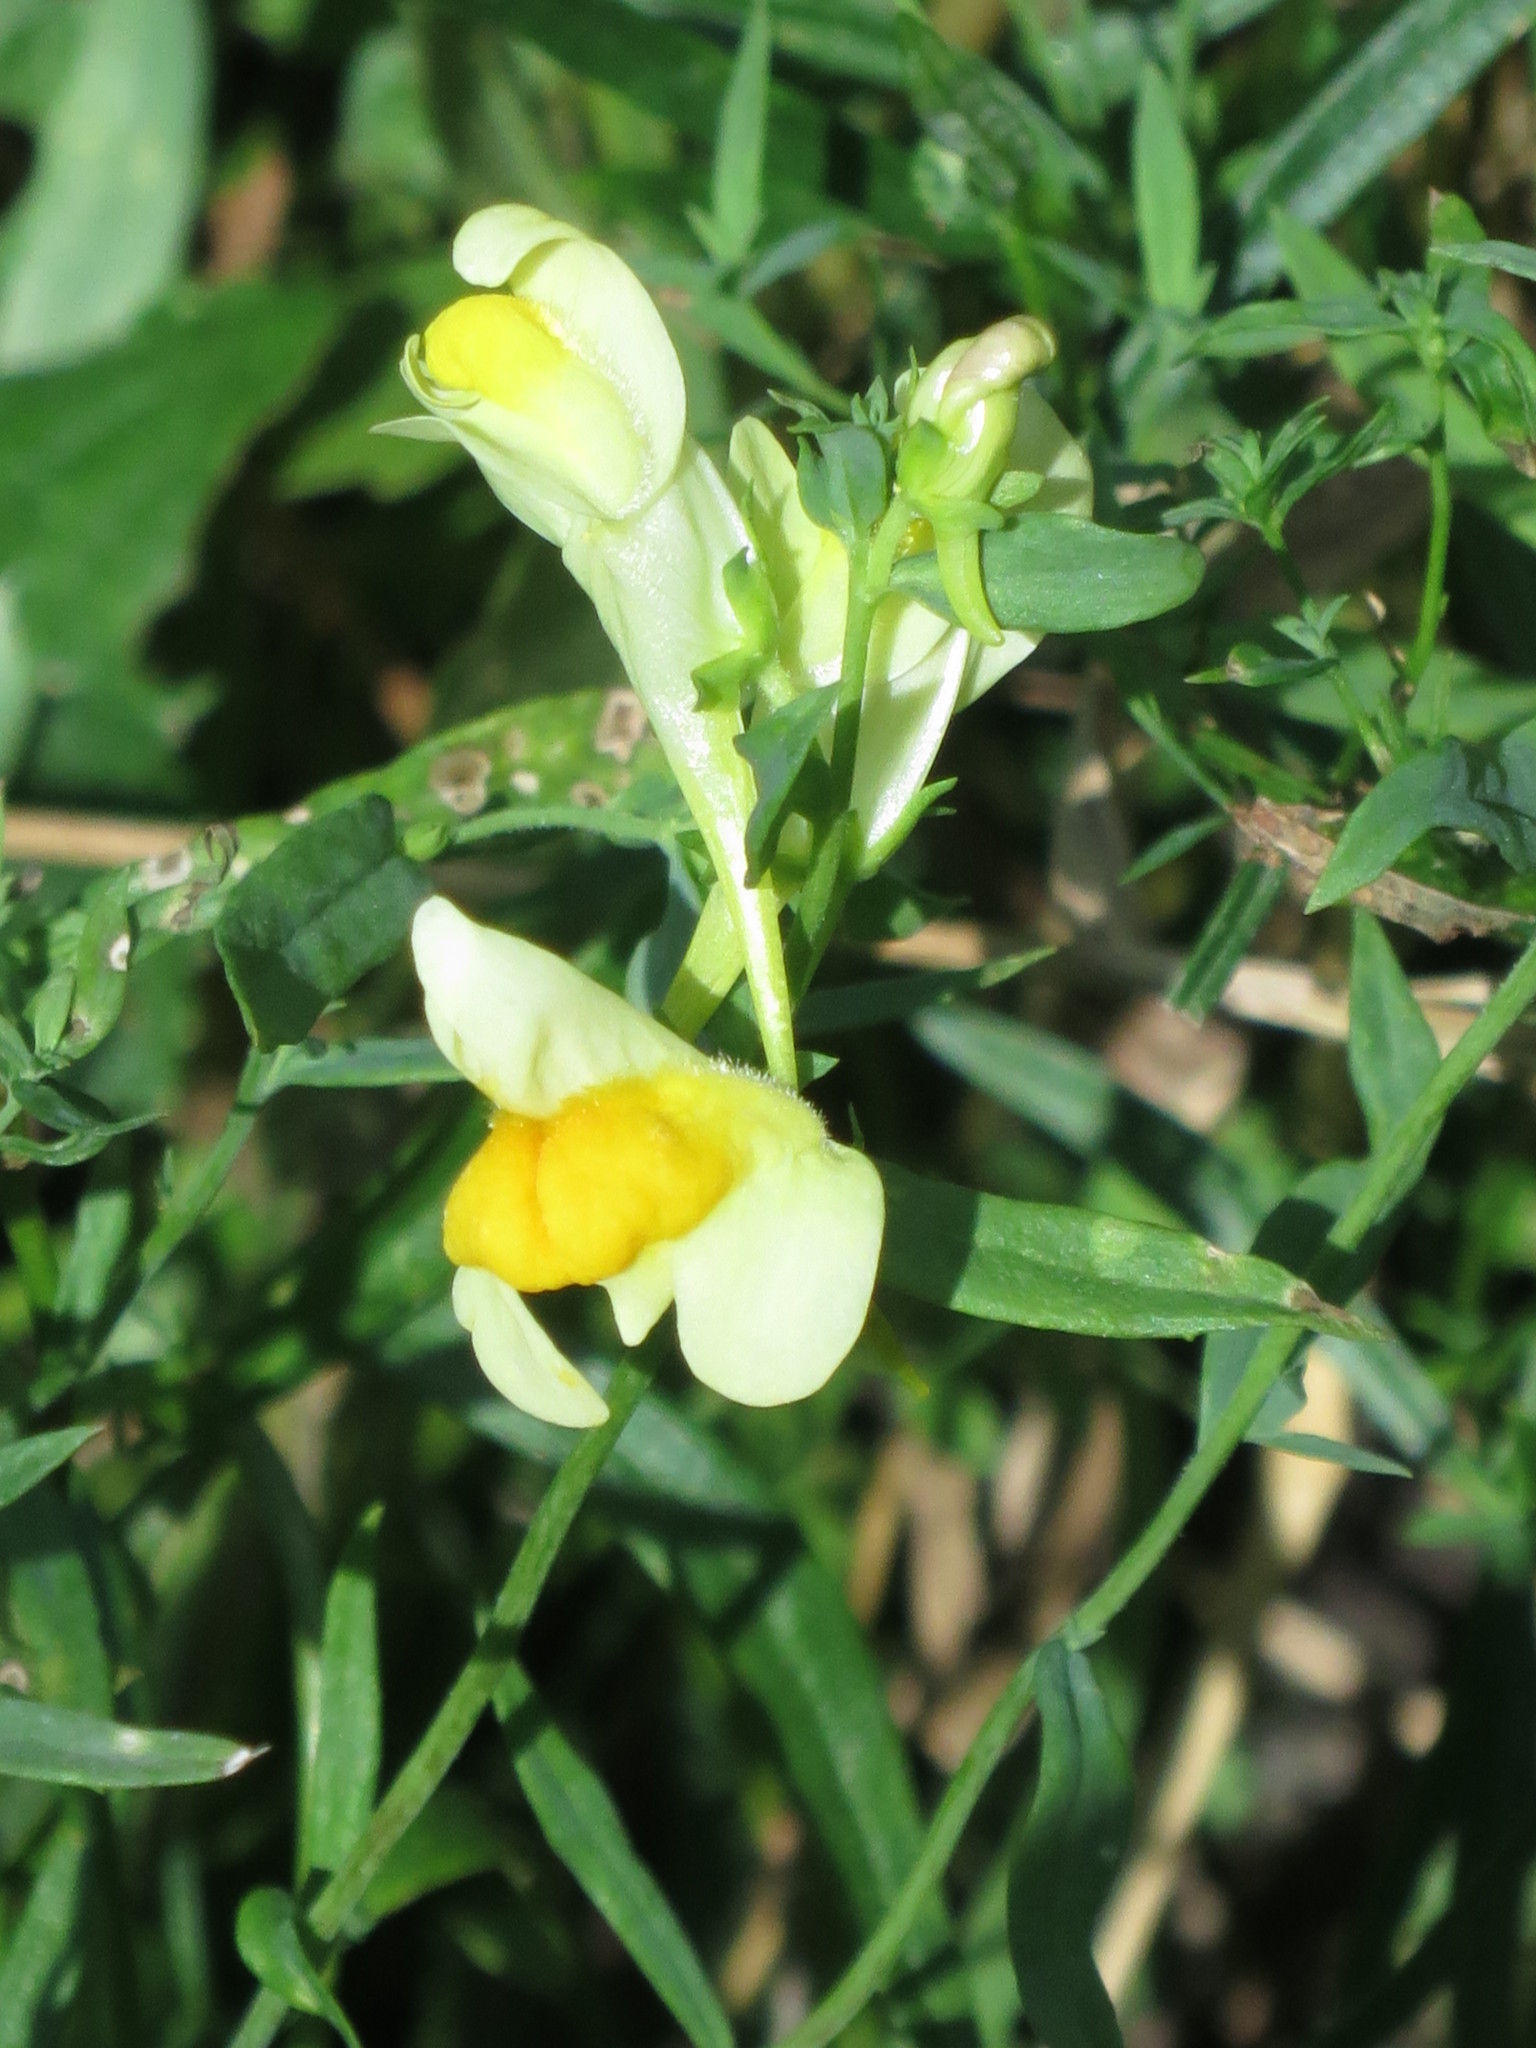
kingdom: Plantae
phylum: Tracheophyta
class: Magnoliopsida
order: Lamiales
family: Plantaginaceae
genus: Linaria
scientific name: Linaria vulgaris
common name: Butter and eggs
